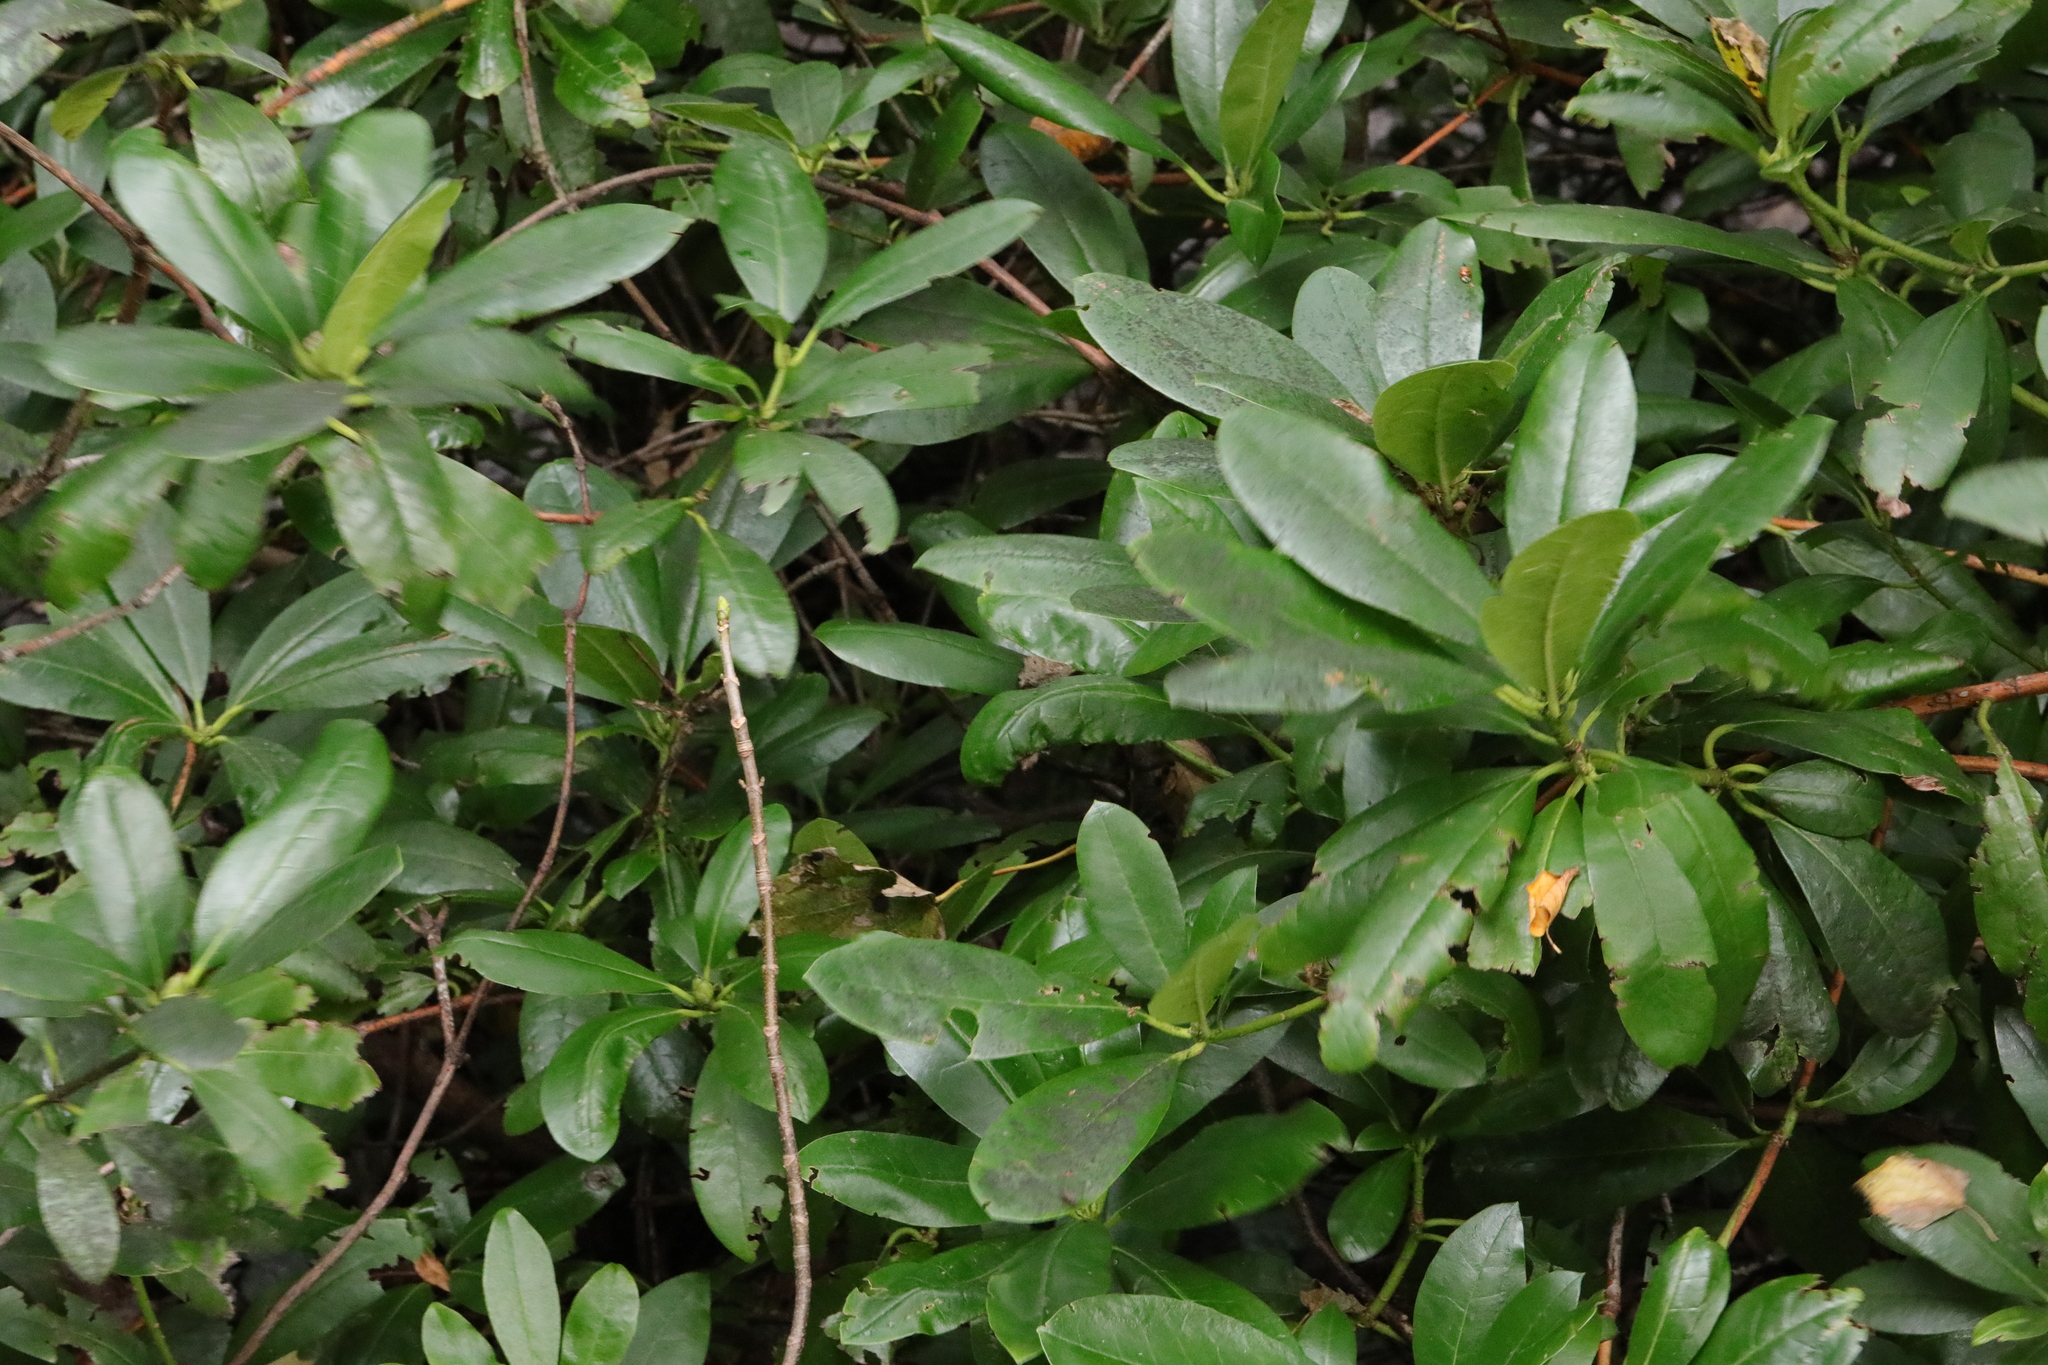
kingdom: Plantae
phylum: Tracheophyta
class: Magnoliopsida
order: Ericales
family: Ericaceae
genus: Rhododendron
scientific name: Rhododendron ponticum
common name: Rhododendron
